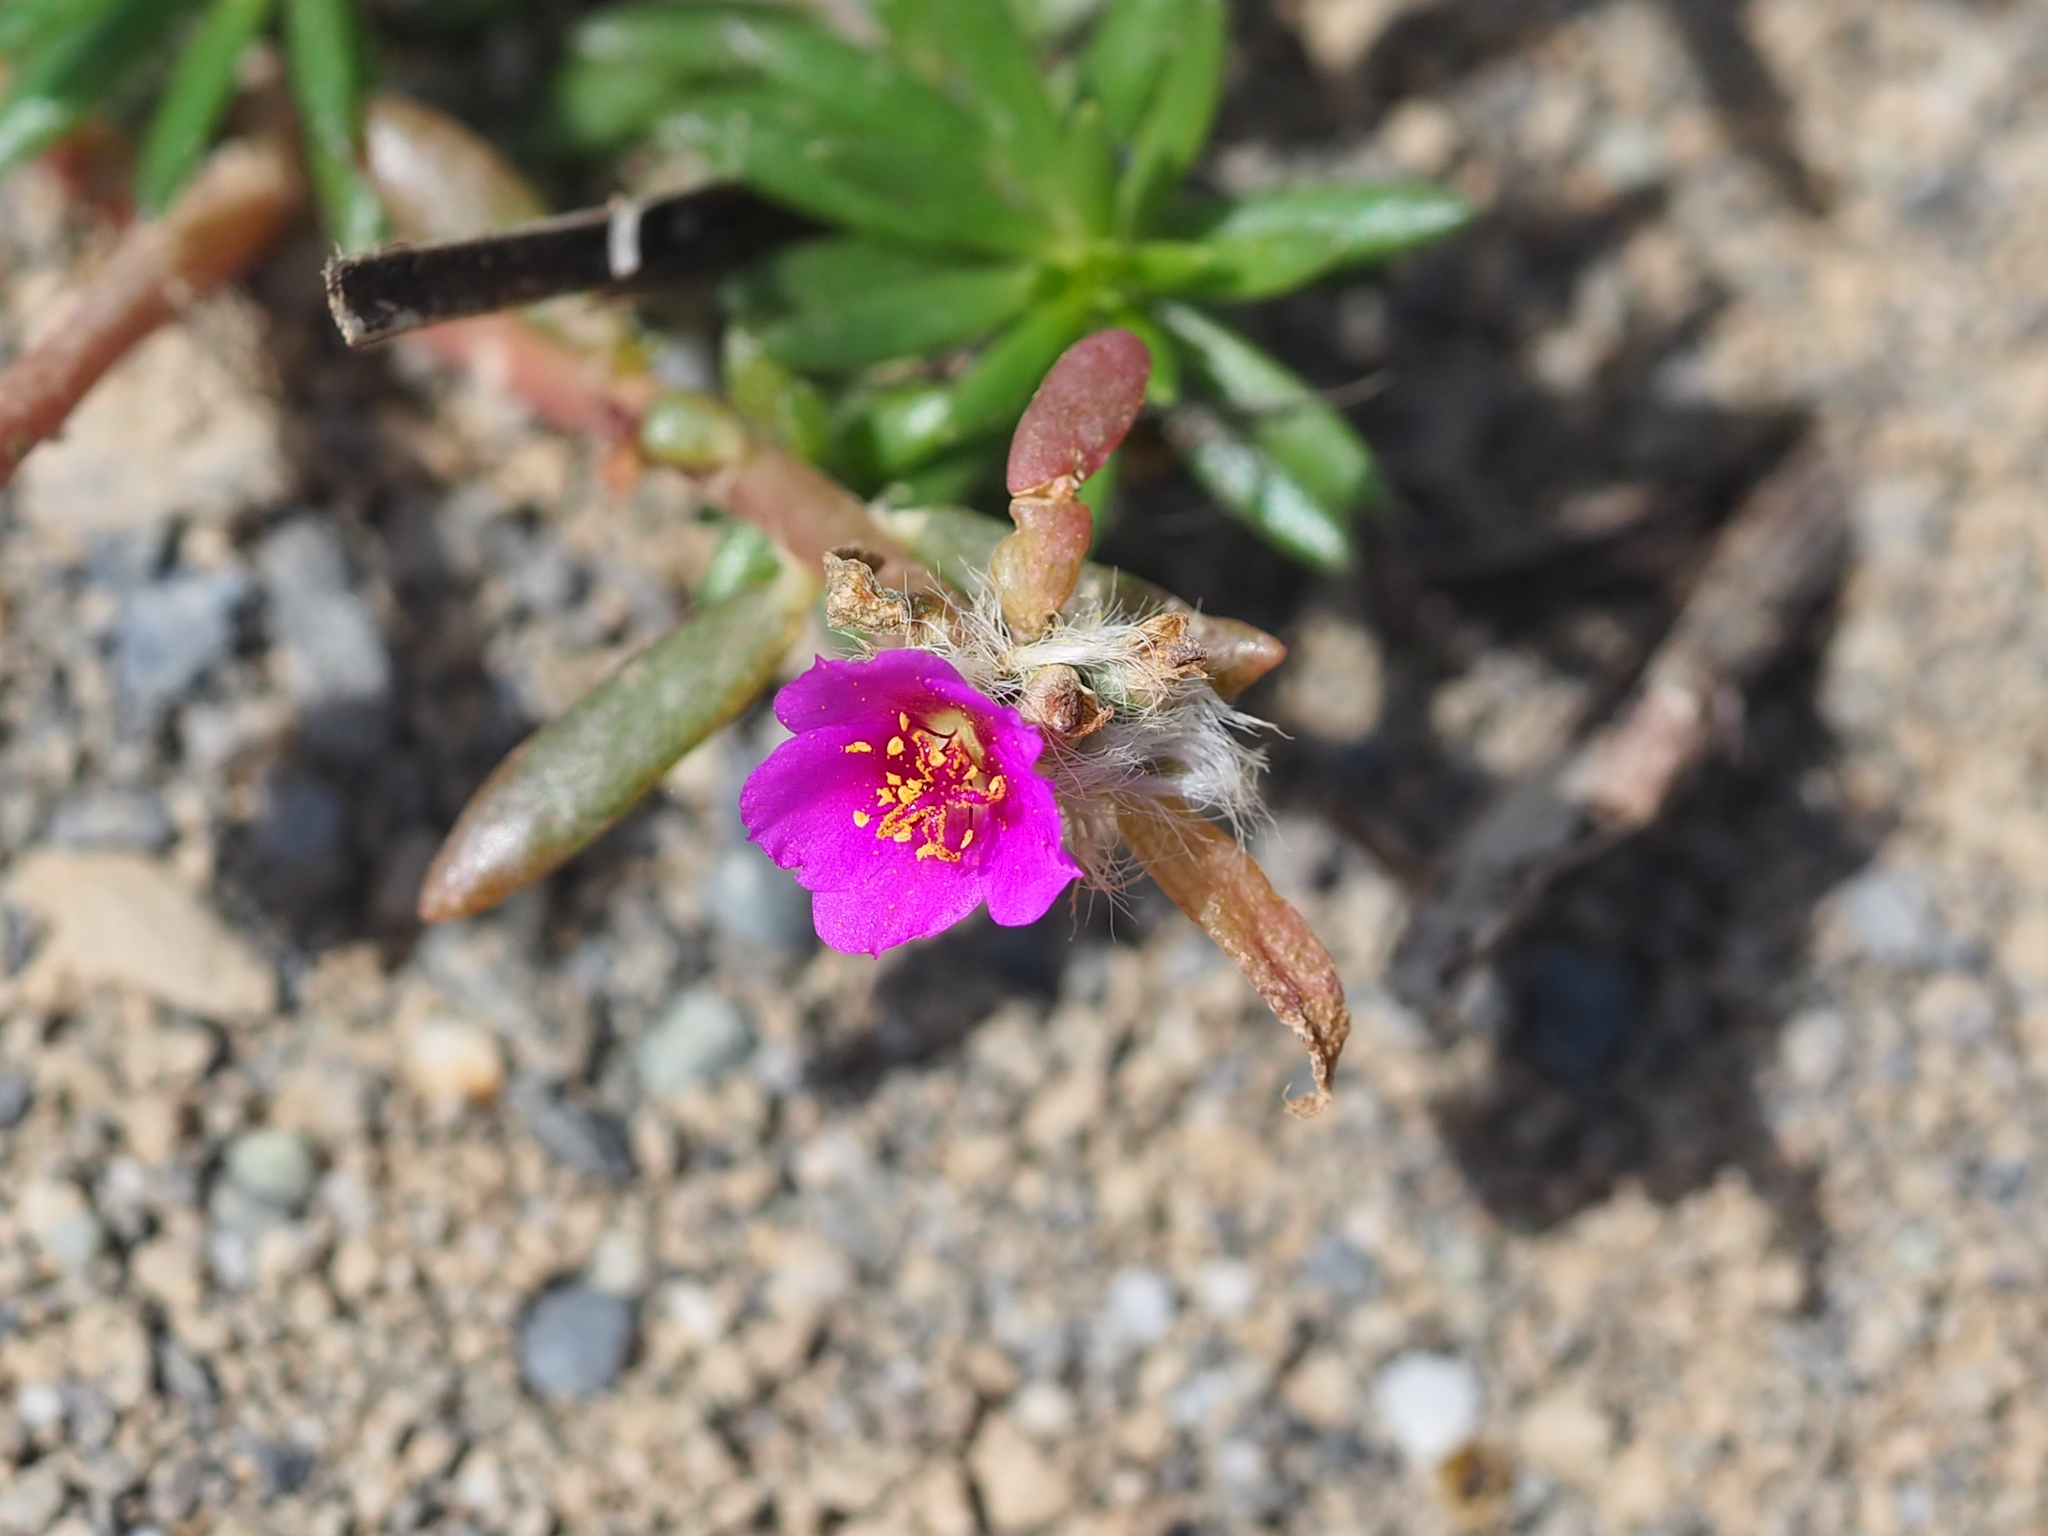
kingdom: Plantae
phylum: Tracheophyta
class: Magnoliopsida
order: Caryophyllales
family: Portulacaceae
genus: Portulaca
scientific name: Portulaca pilosa
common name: Kiss me quick
